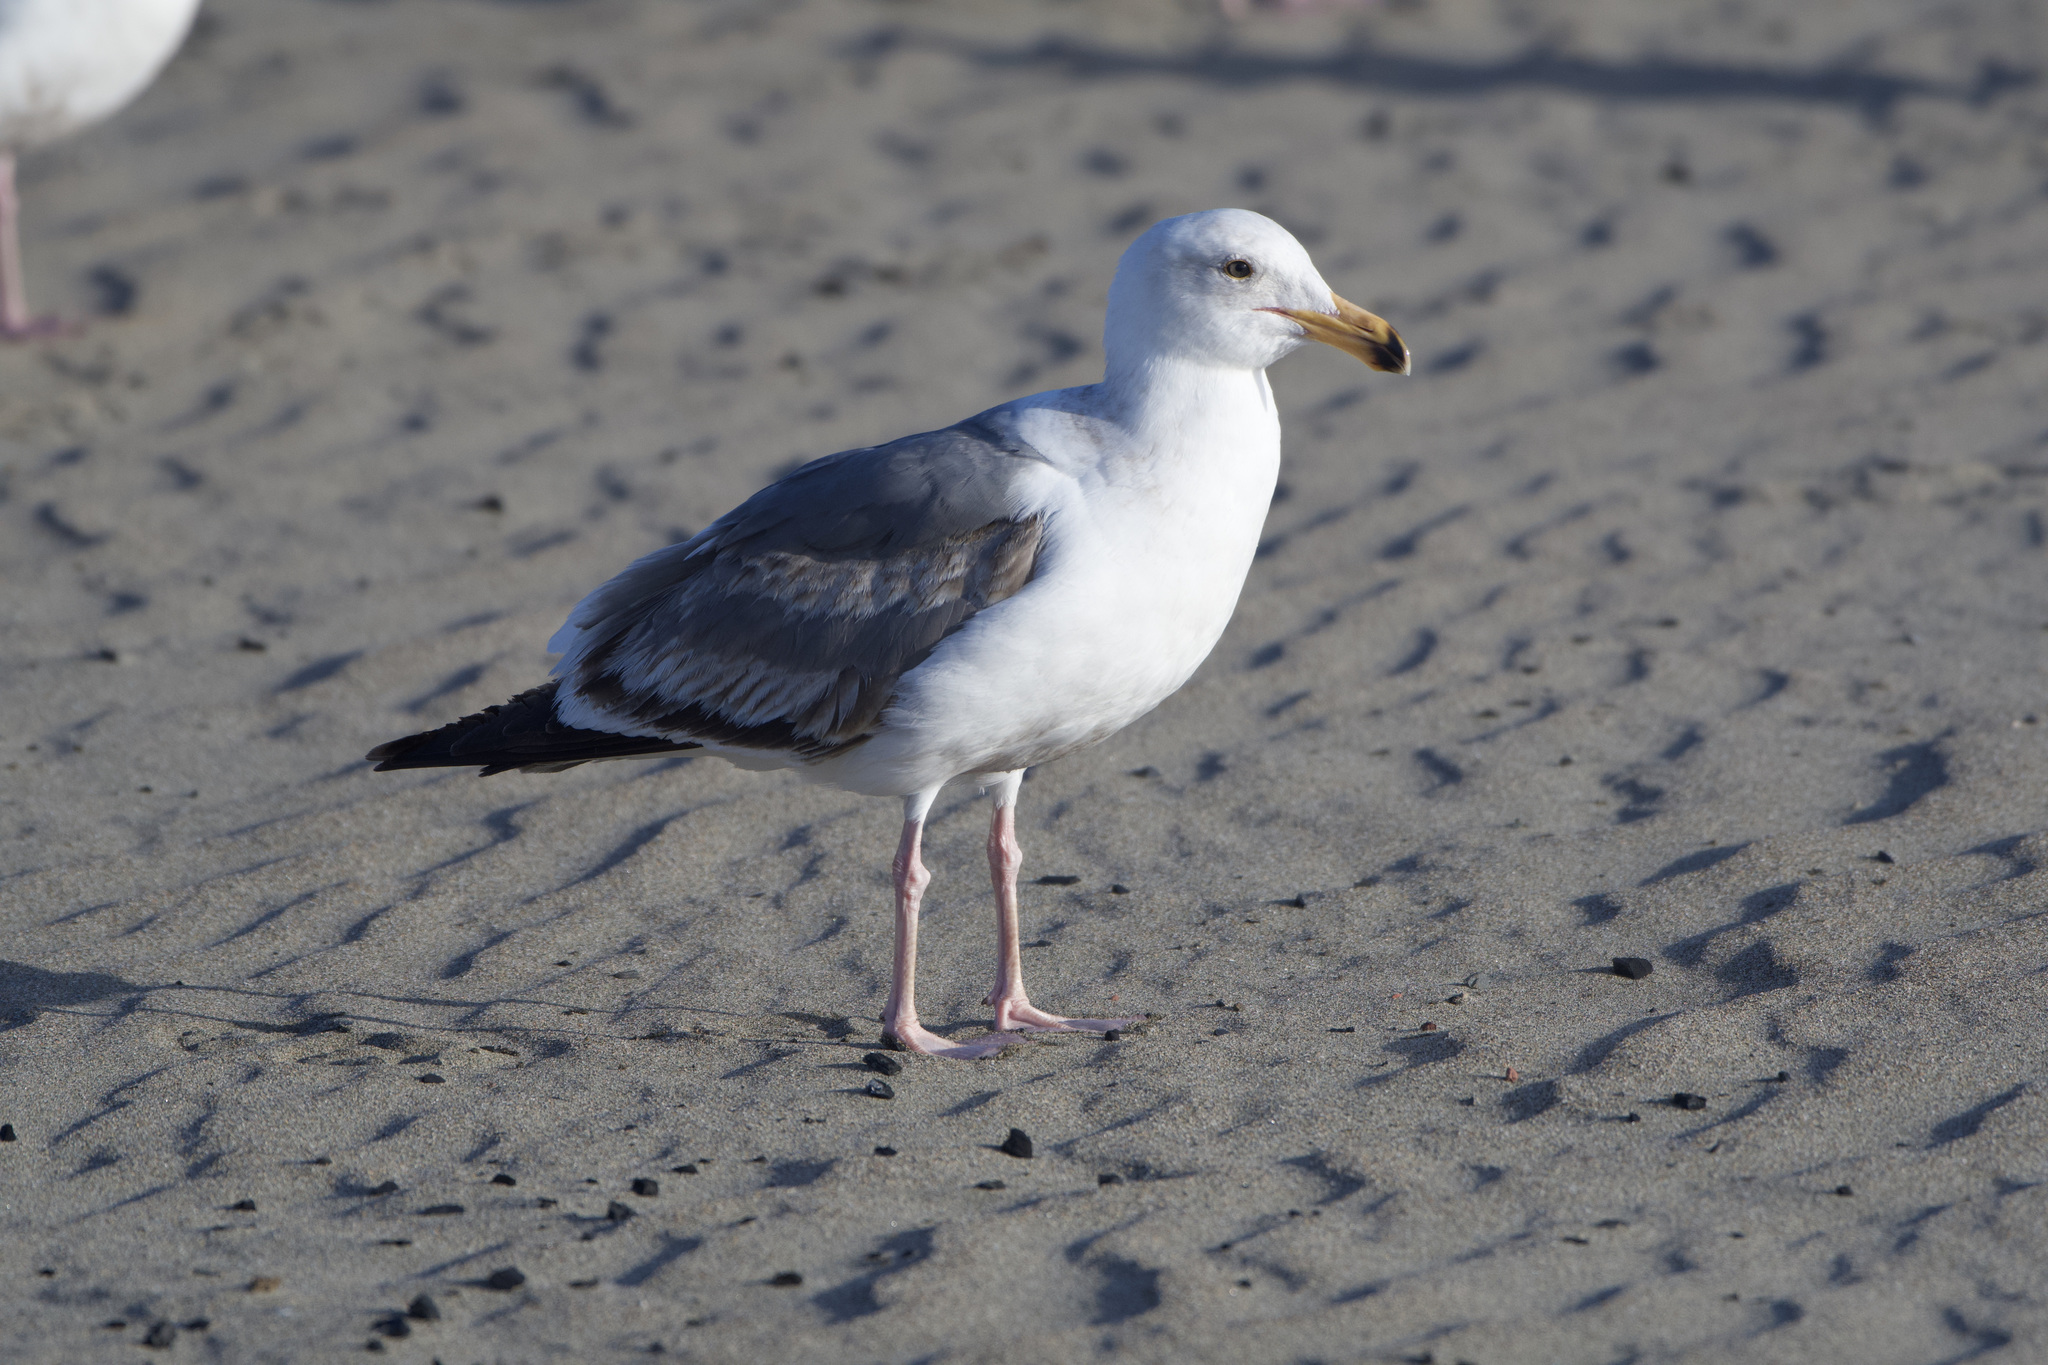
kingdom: Animalia
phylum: Chordata
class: Aves
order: Charadriiformes
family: Laridae
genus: Larus
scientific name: Larus occidentalis
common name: Western gull
